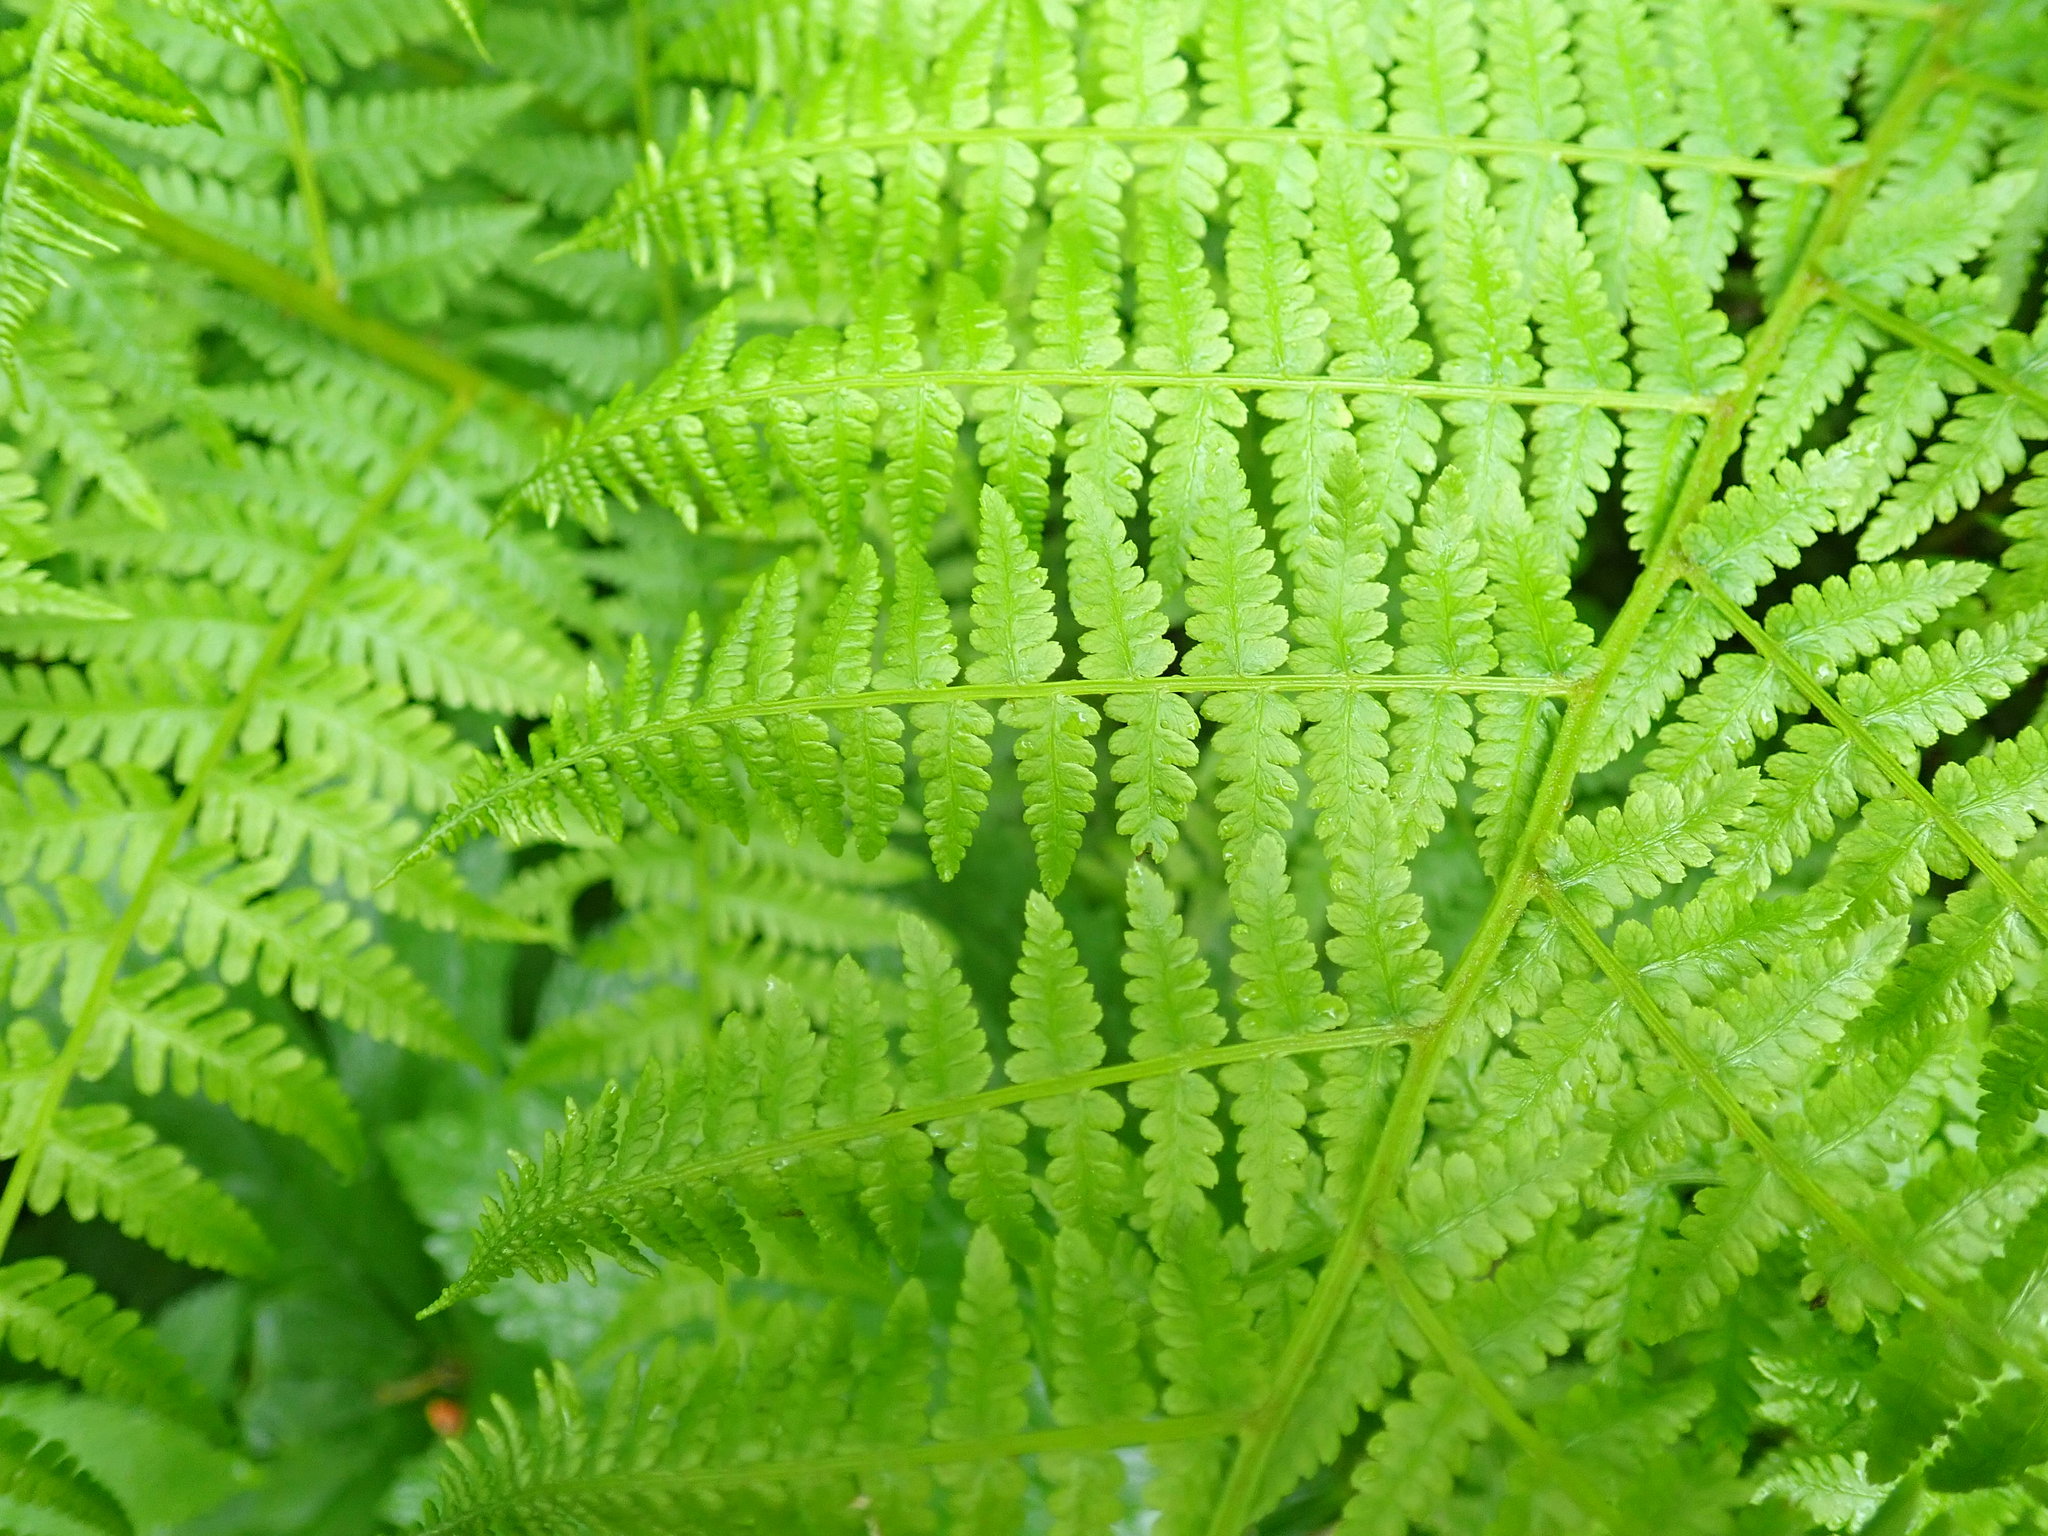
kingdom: Plantae
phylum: Tracheophyta
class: Polypodiopsida
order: Polypodiales
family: Athyriaceae
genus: Athyrium
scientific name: Athyrium filix-femina
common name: Lady fern
